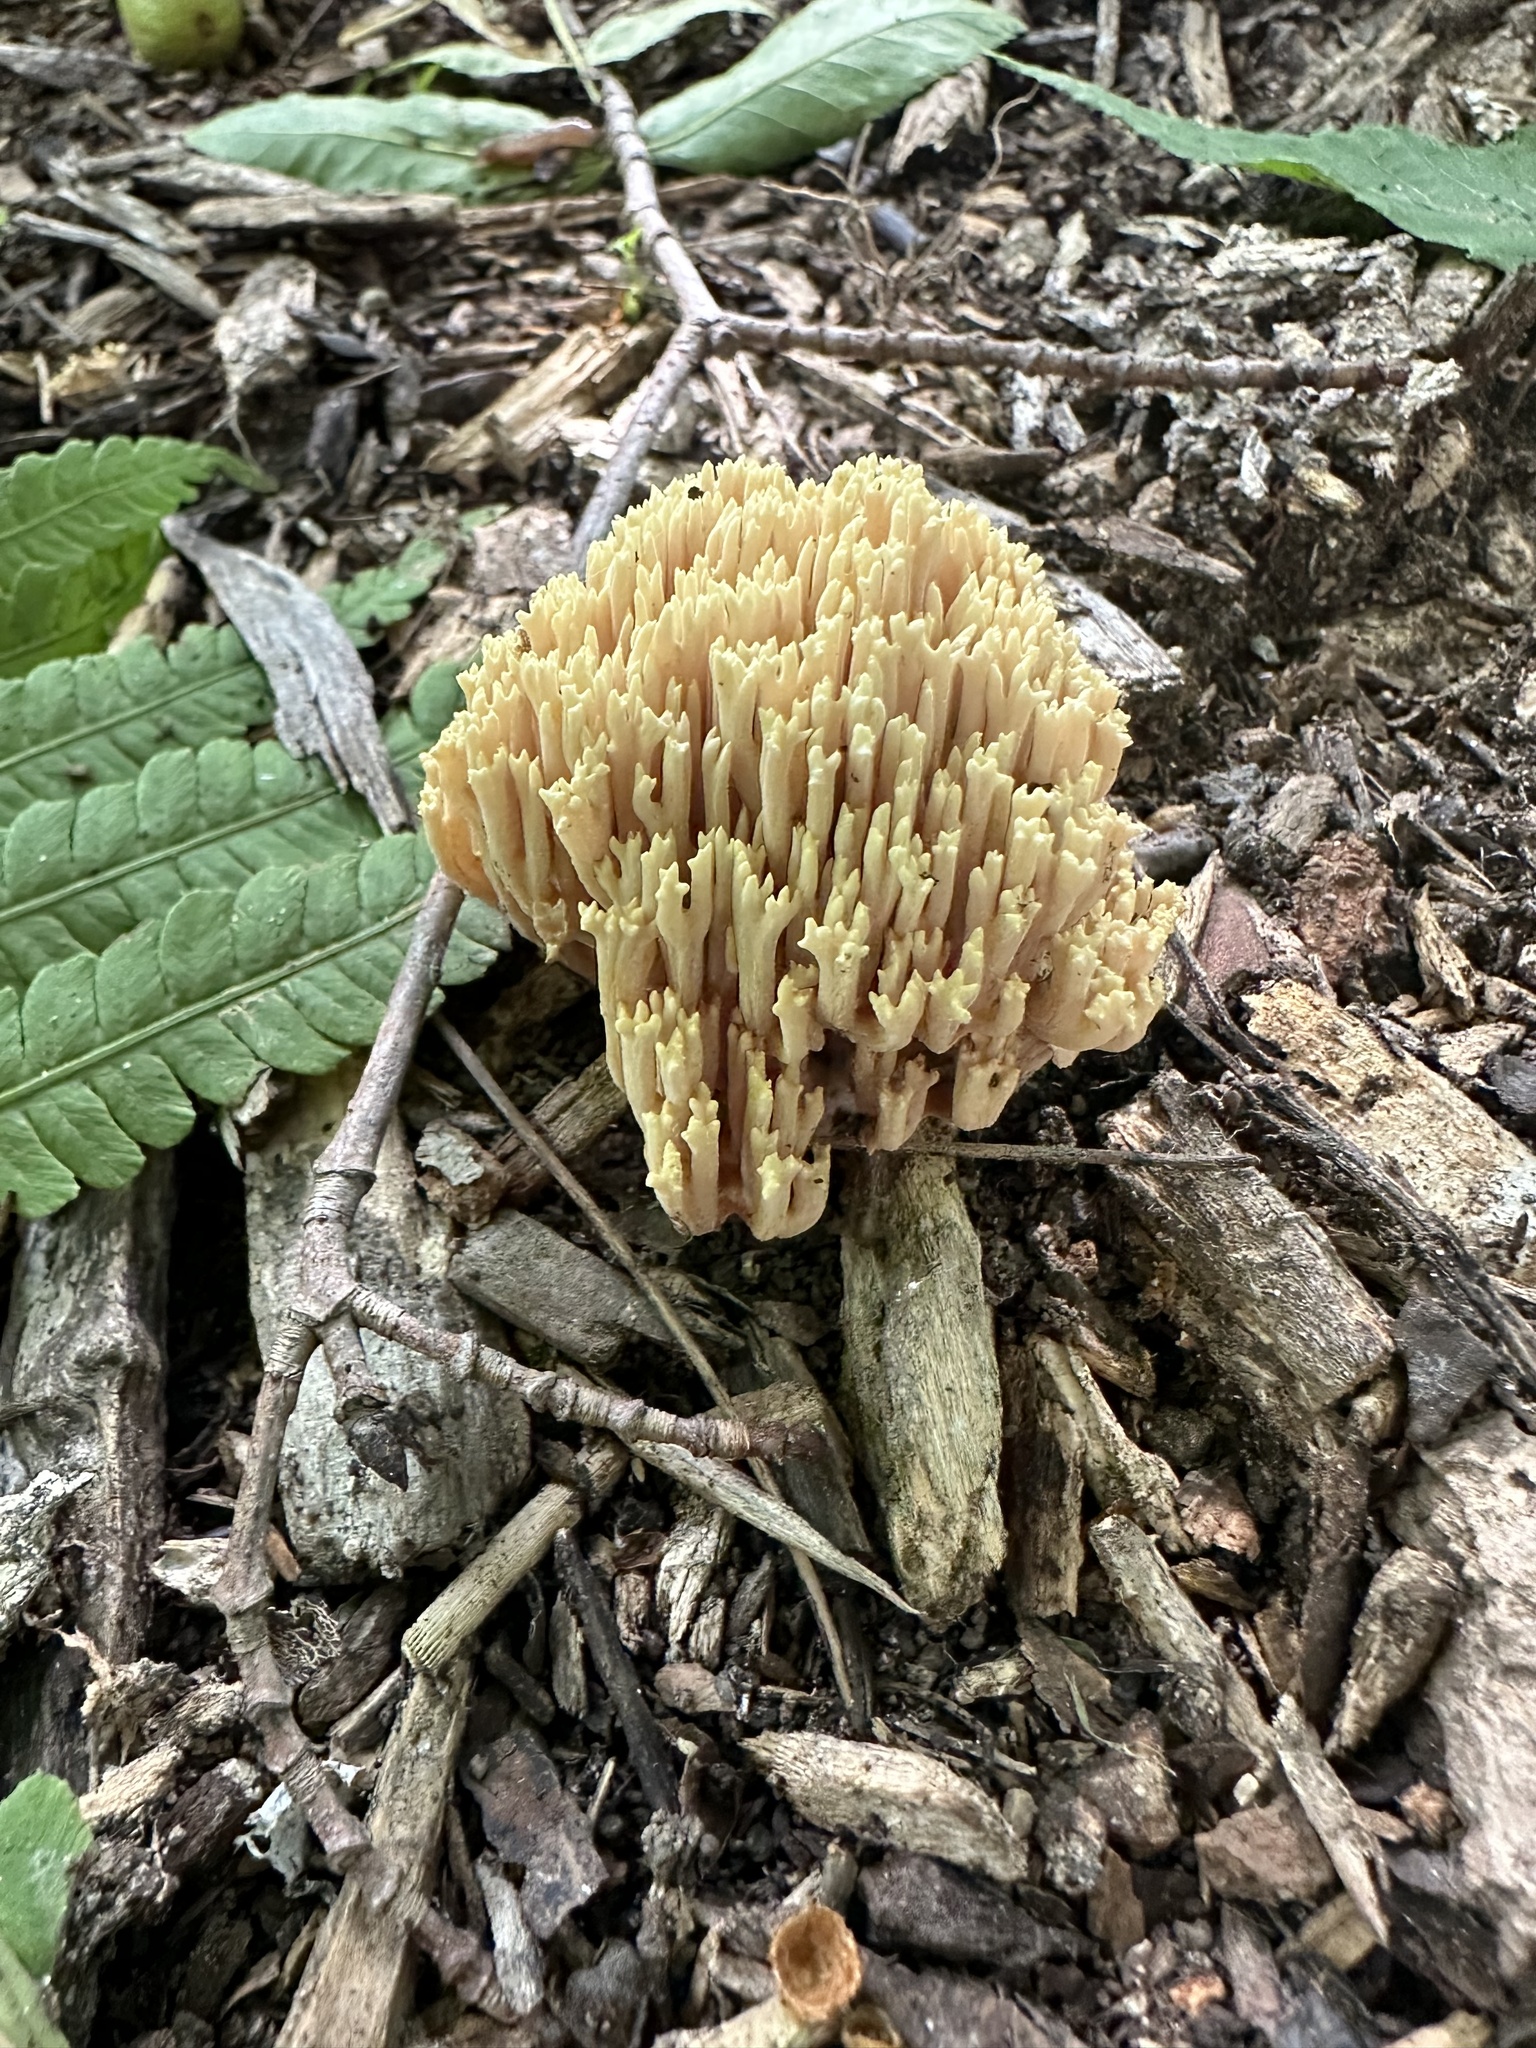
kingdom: Fungi
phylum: Basidiomycota
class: Agaricomycetes
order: Gomphales
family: Gomphaceae
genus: Ramaria
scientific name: Ramaria stricta
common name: Upright coral
